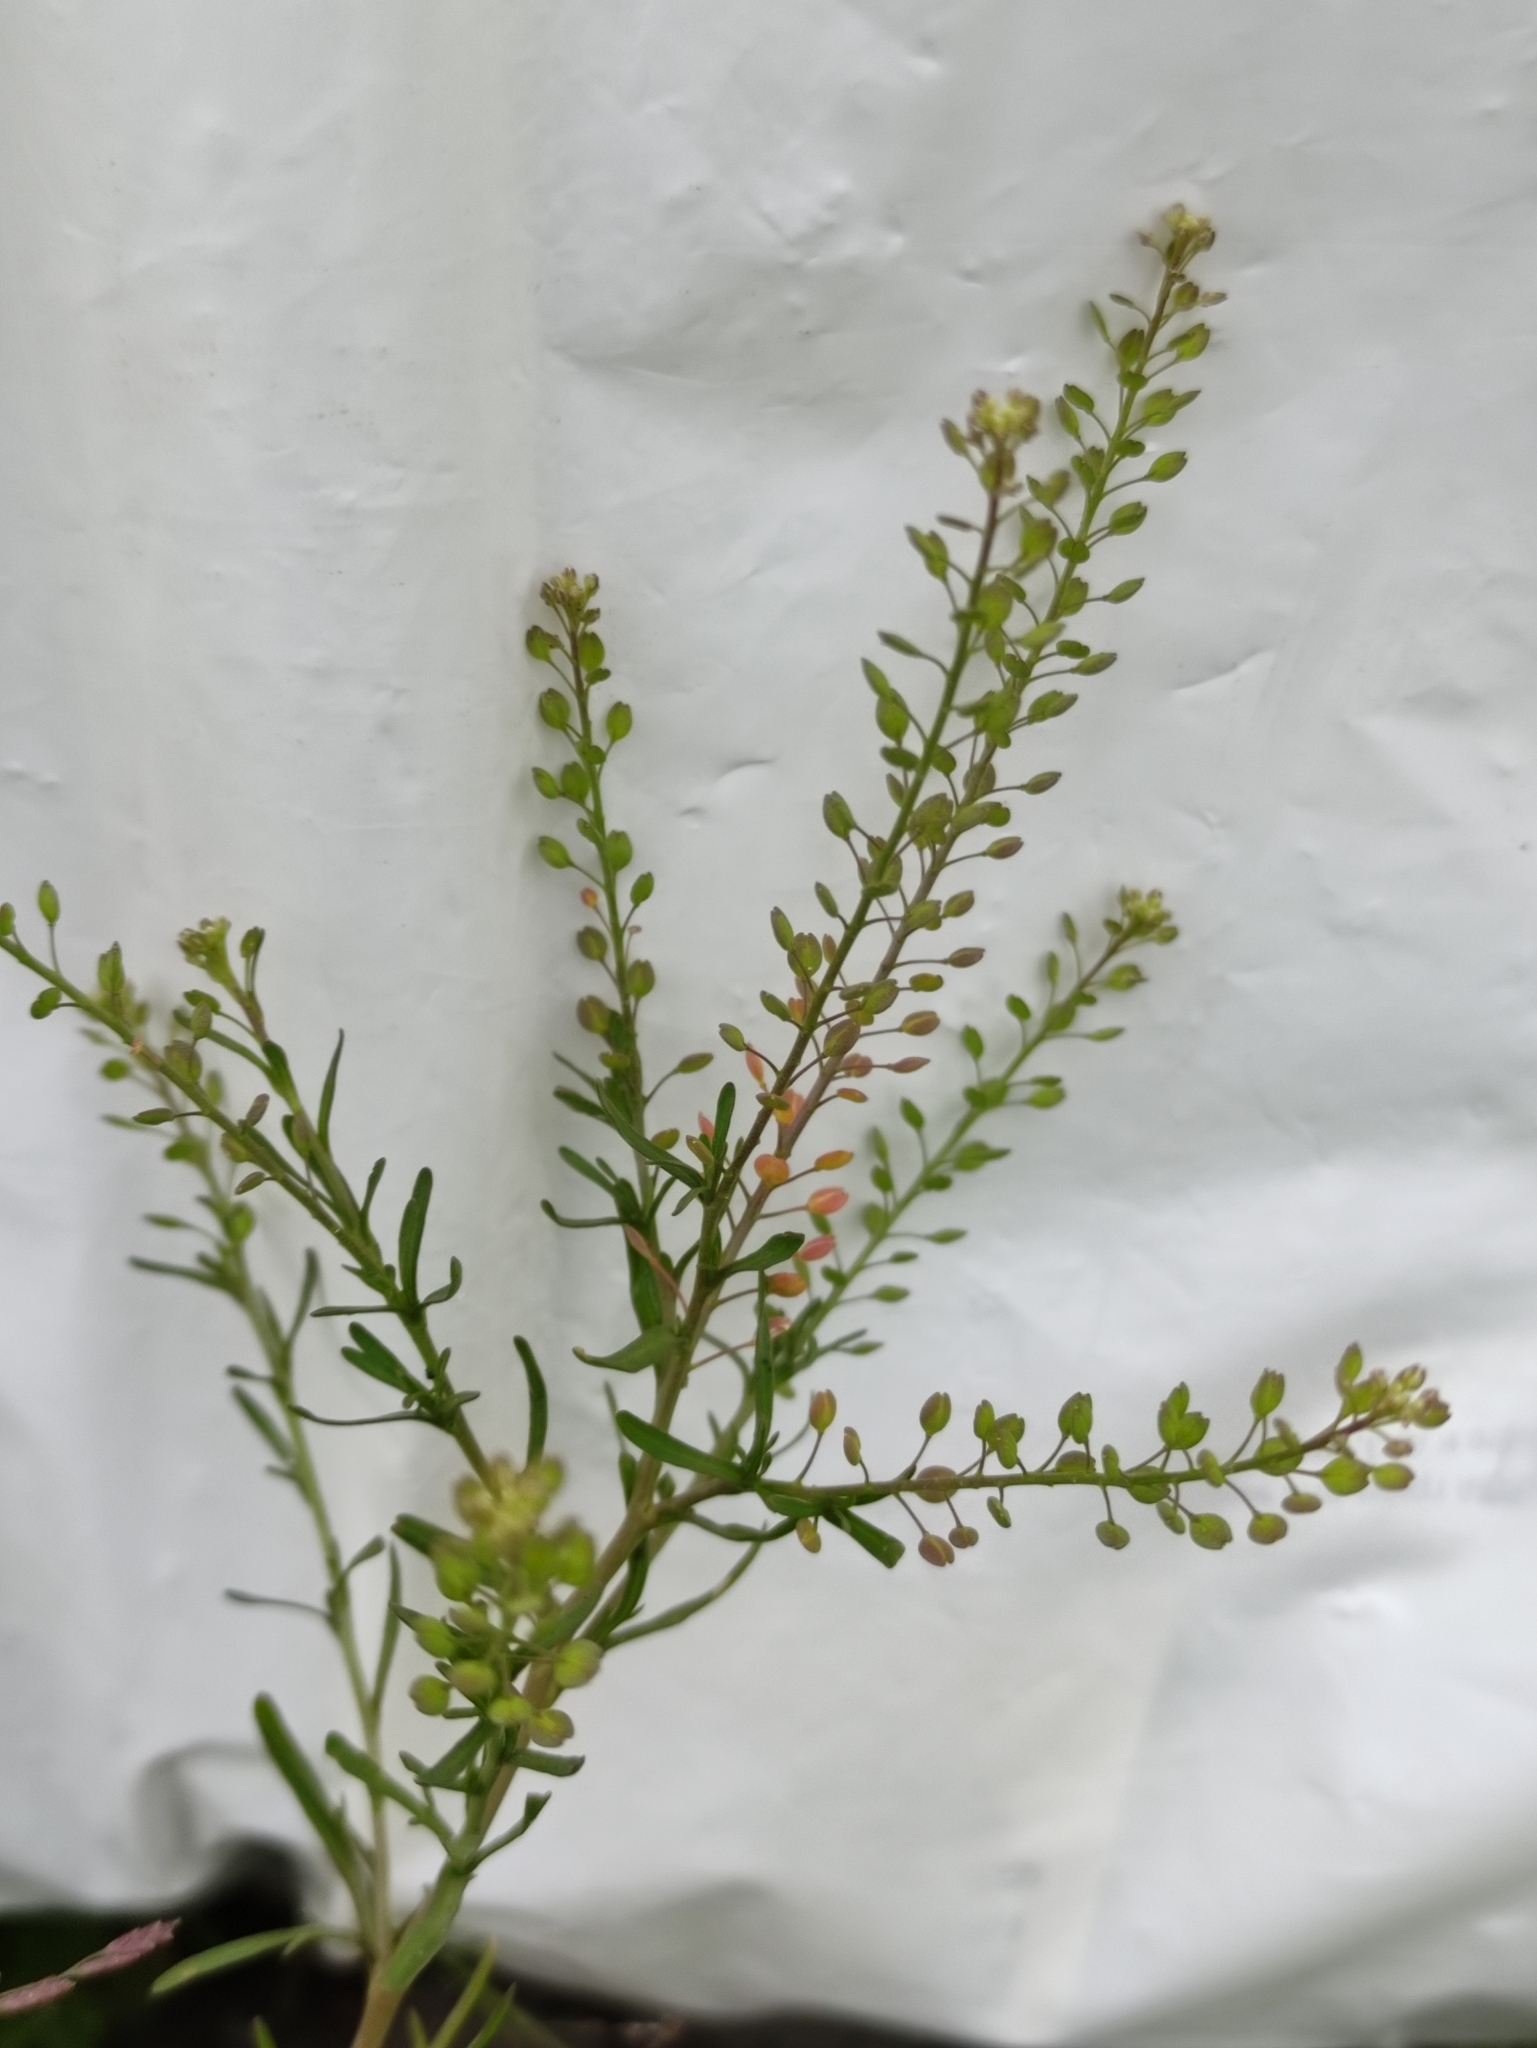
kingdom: Plantae
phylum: Tracheophyta
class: Magnoliopsida
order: Brassicales
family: Brassicaceae
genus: Lepidium
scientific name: Lepidium ruderale
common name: Narrow-leaved pepperwort
